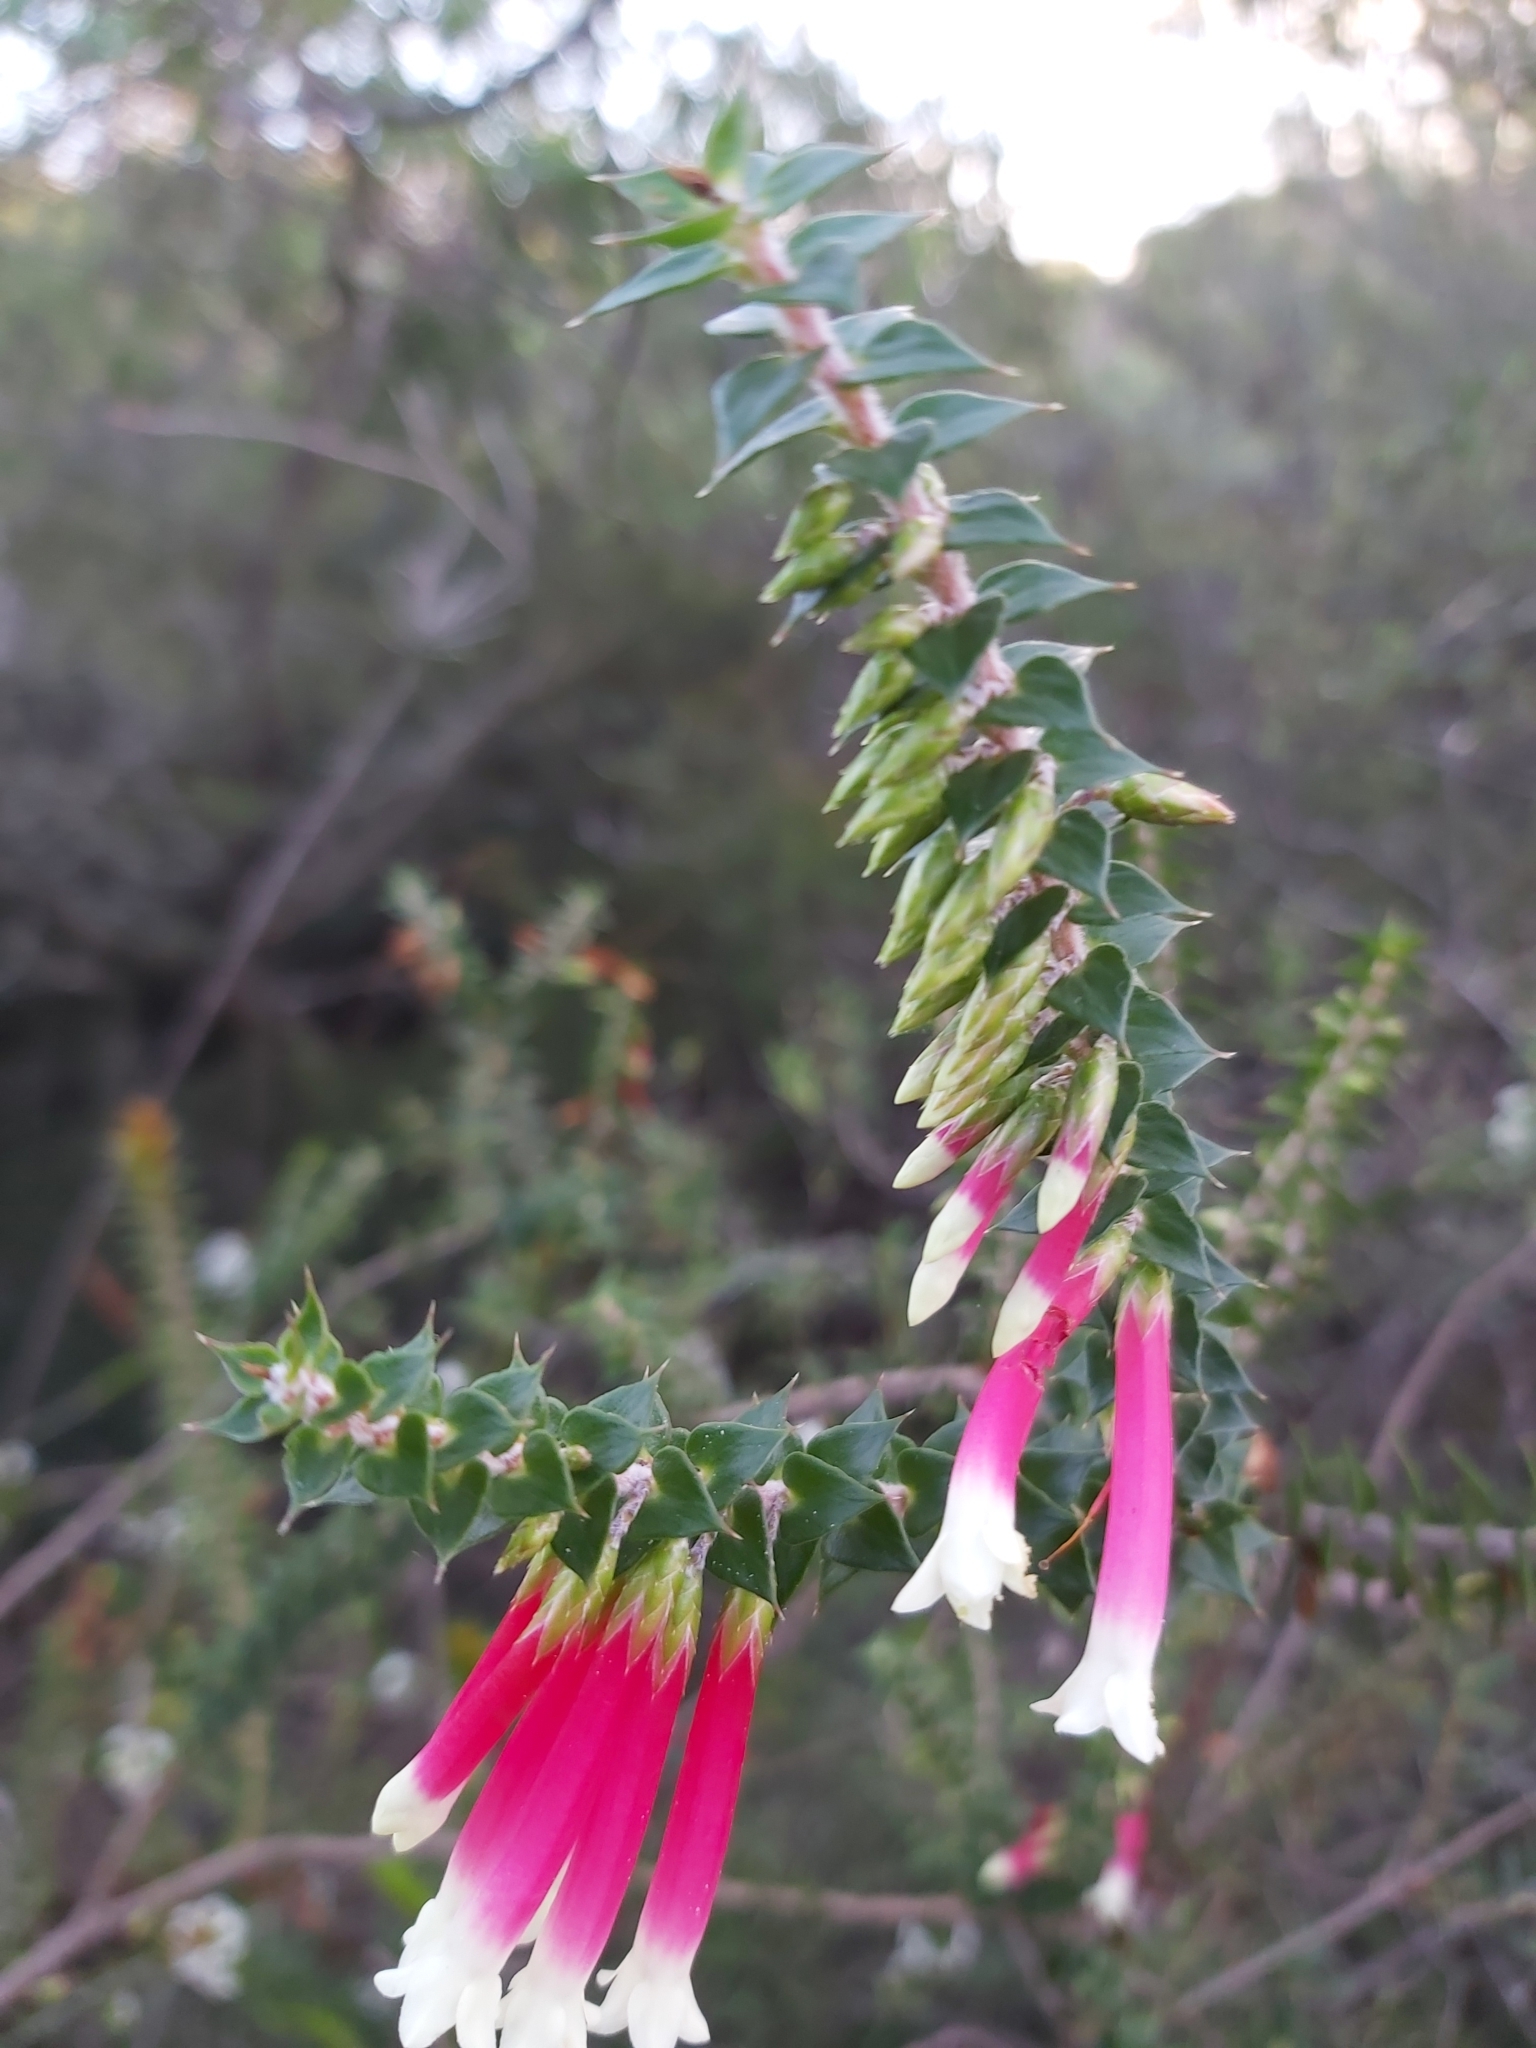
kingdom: Plantae
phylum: Tracheophyta
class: Magnoliopsida
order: Ericales
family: Ericaceae
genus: Epacris
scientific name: Epacris longiflora
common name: Fuchsia-heath
